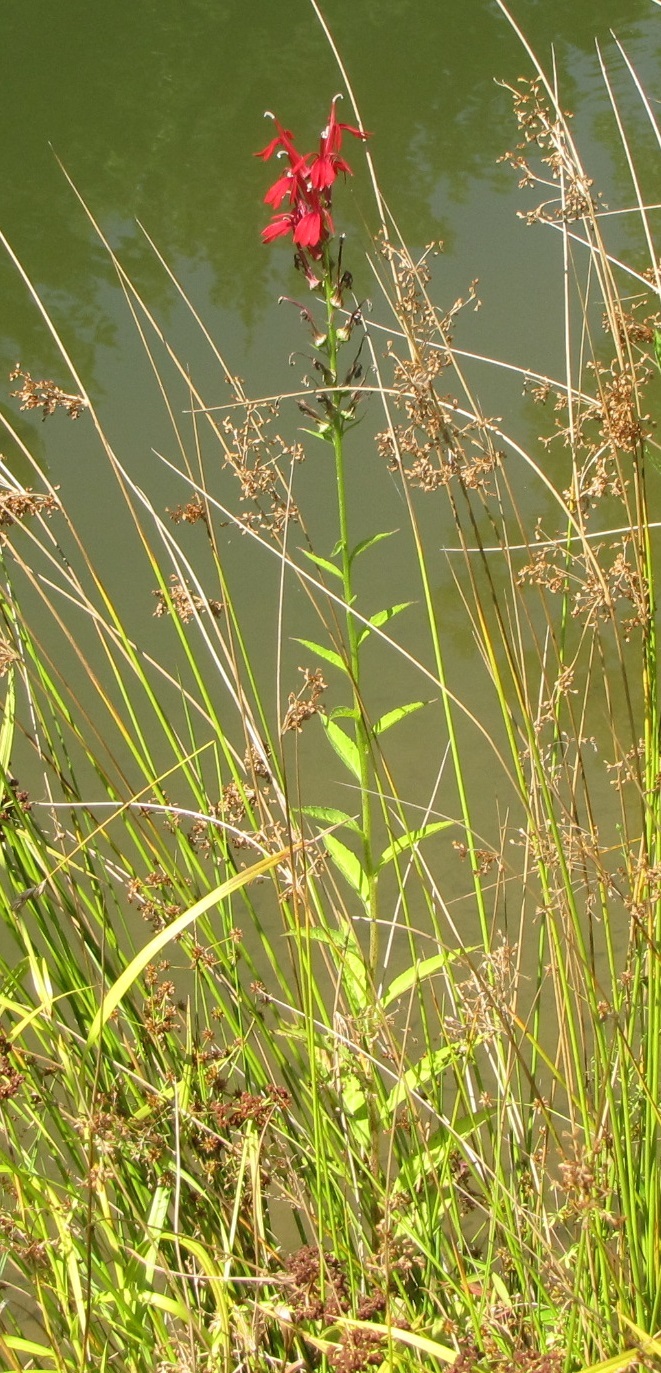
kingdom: Plantae
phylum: Tracheophyta
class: Magnoliopsida
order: Asterales
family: Campanulaceae
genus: Lobelia
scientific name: Lobelia cardinalis
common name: Cardinal flower
